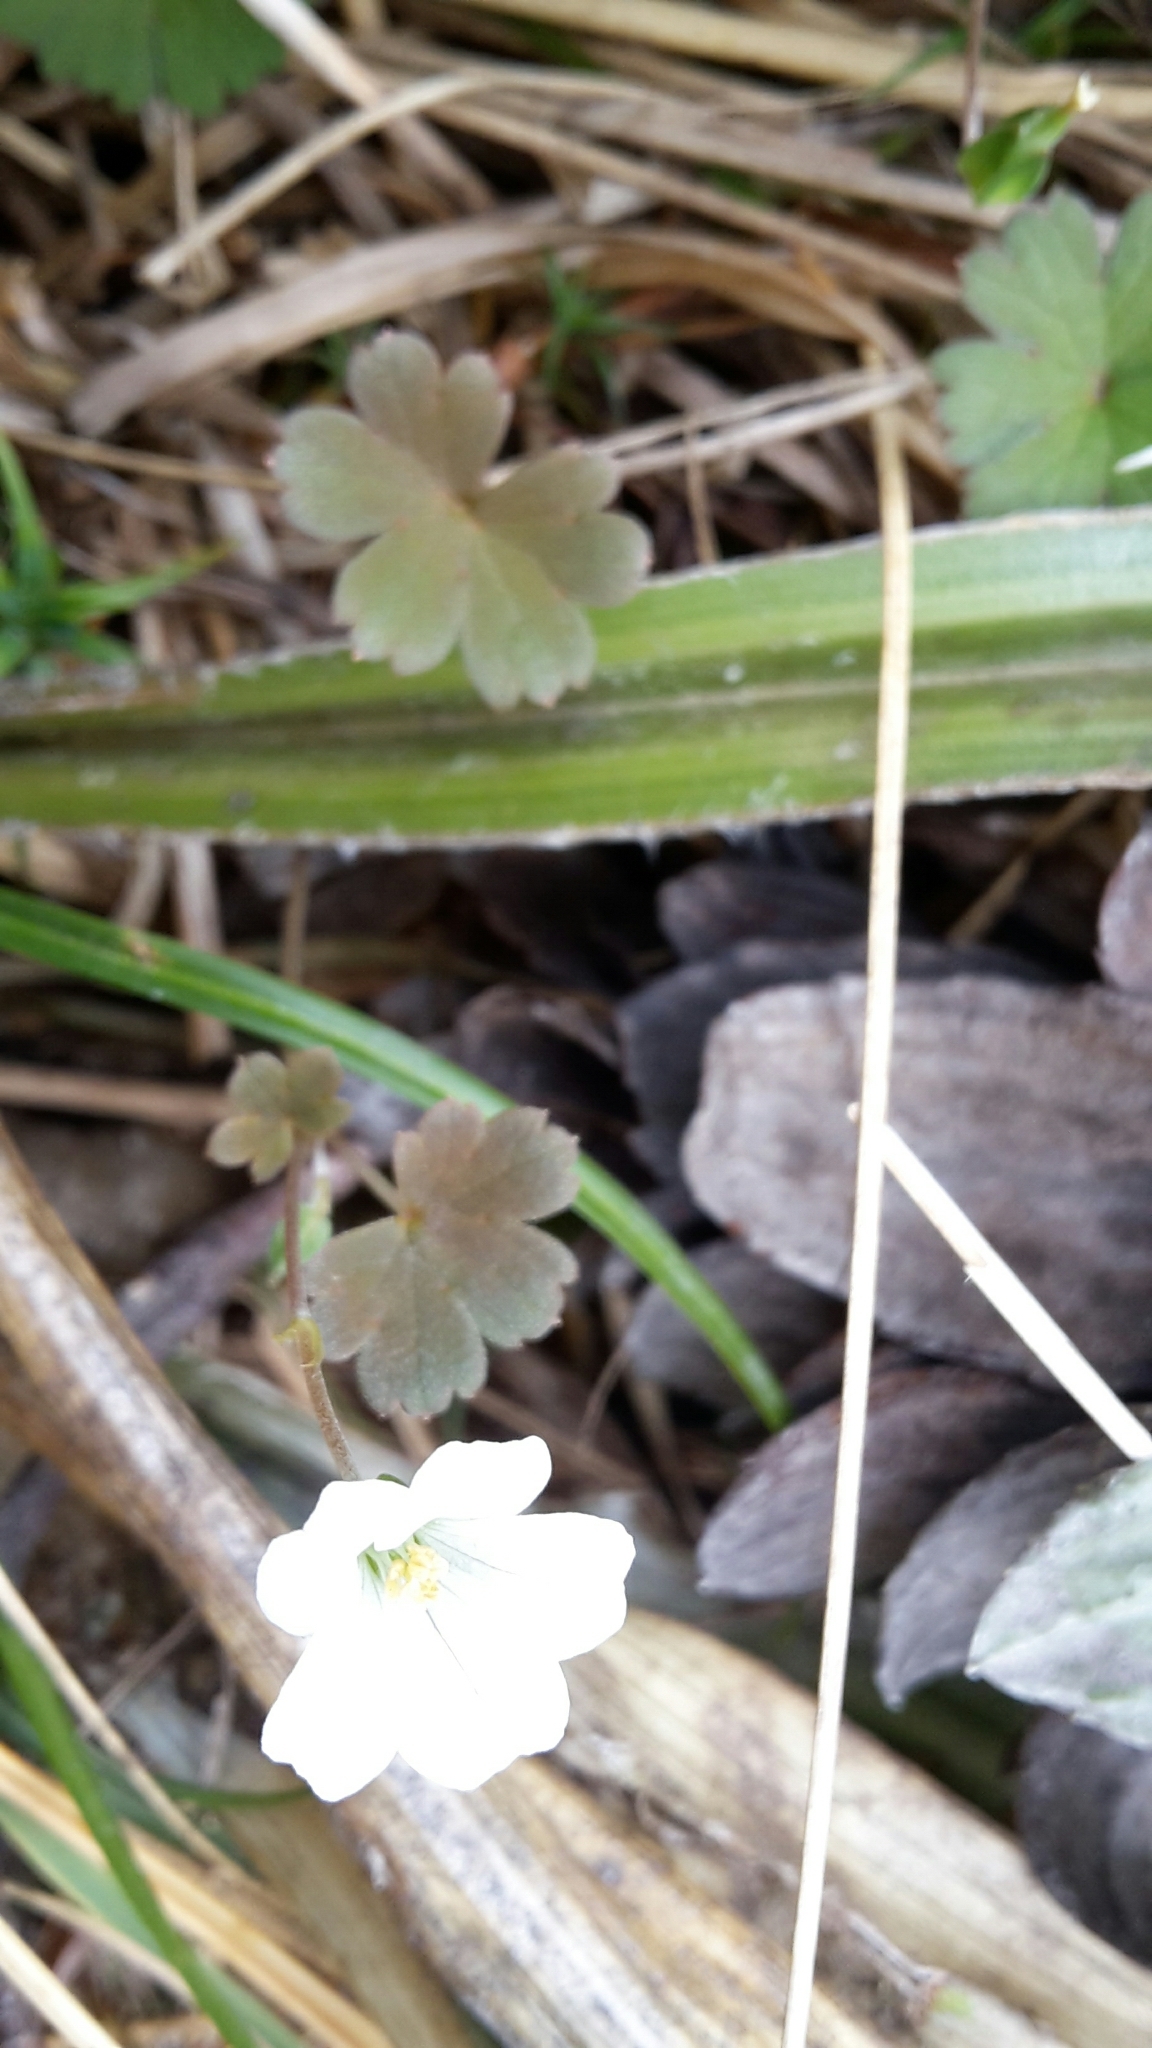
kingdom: Plantae
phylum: Tracheophyta
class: Magnoliopsida
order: Geraniales
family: Geraniaceae
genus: Geranium
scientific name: Geranium
